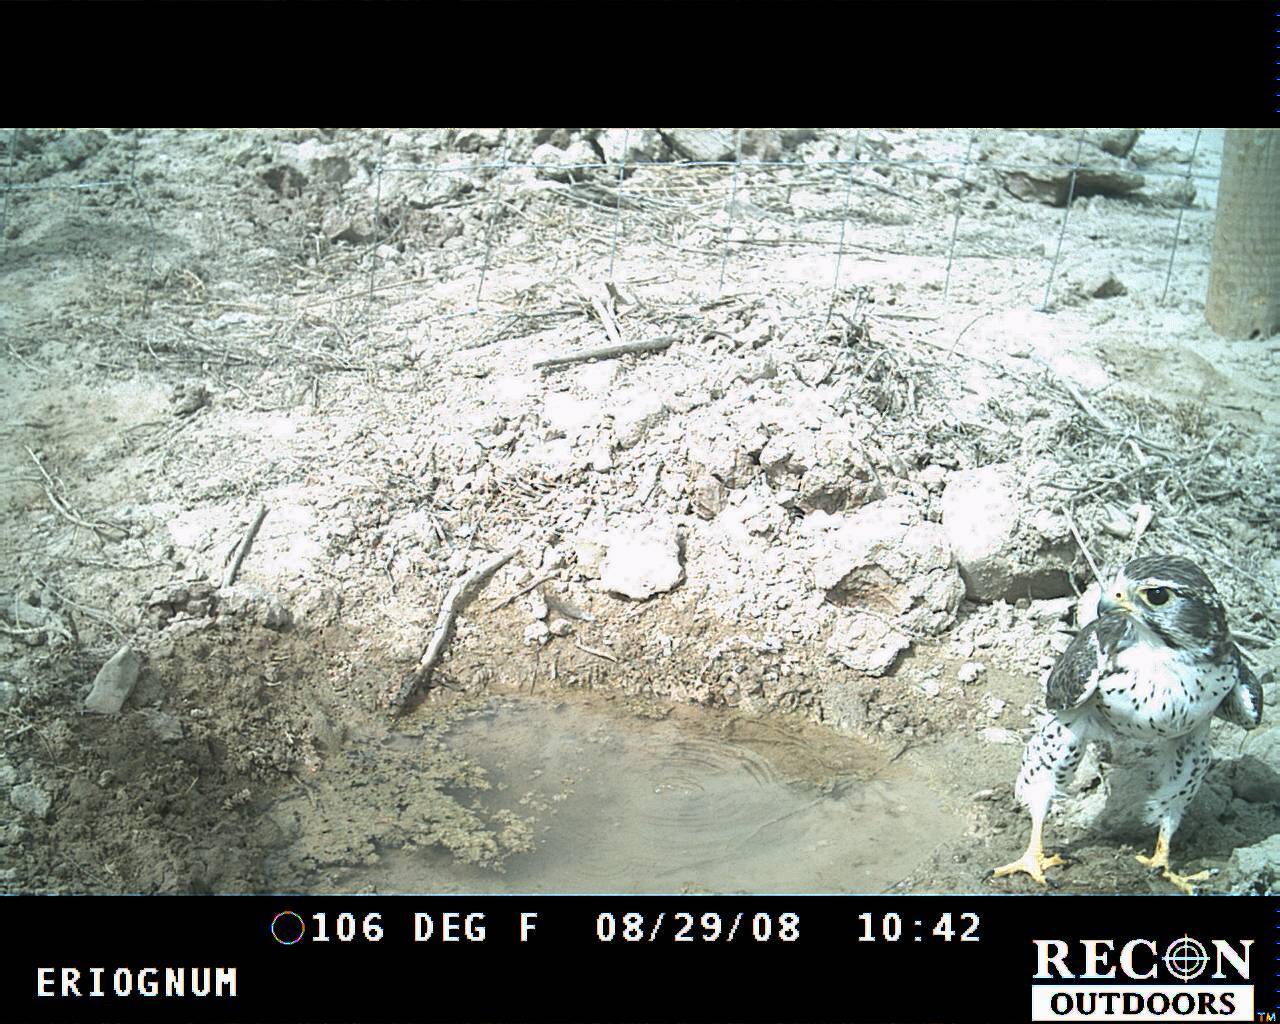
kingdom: Animalia
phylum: Chordata
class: Aves
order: Falconiformes
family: Falconidae
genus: Falco
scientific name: Falco mexicanus
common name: Prairie falcon
